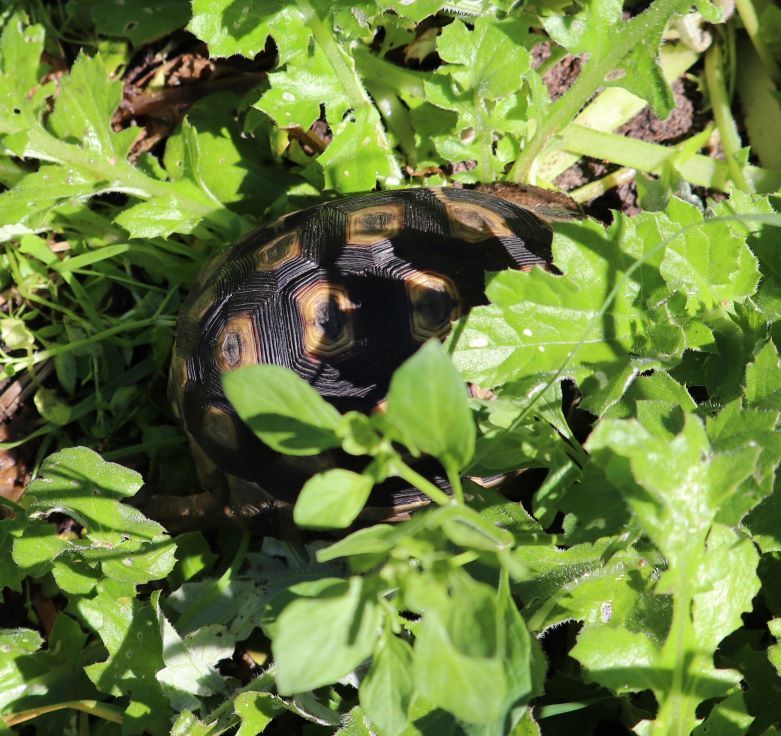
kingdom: Animalia
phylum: Chordata
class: Testudines
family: Testudinidae
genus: Chersina
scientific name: Chersina angulata
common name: South african bowsprit tortoise
